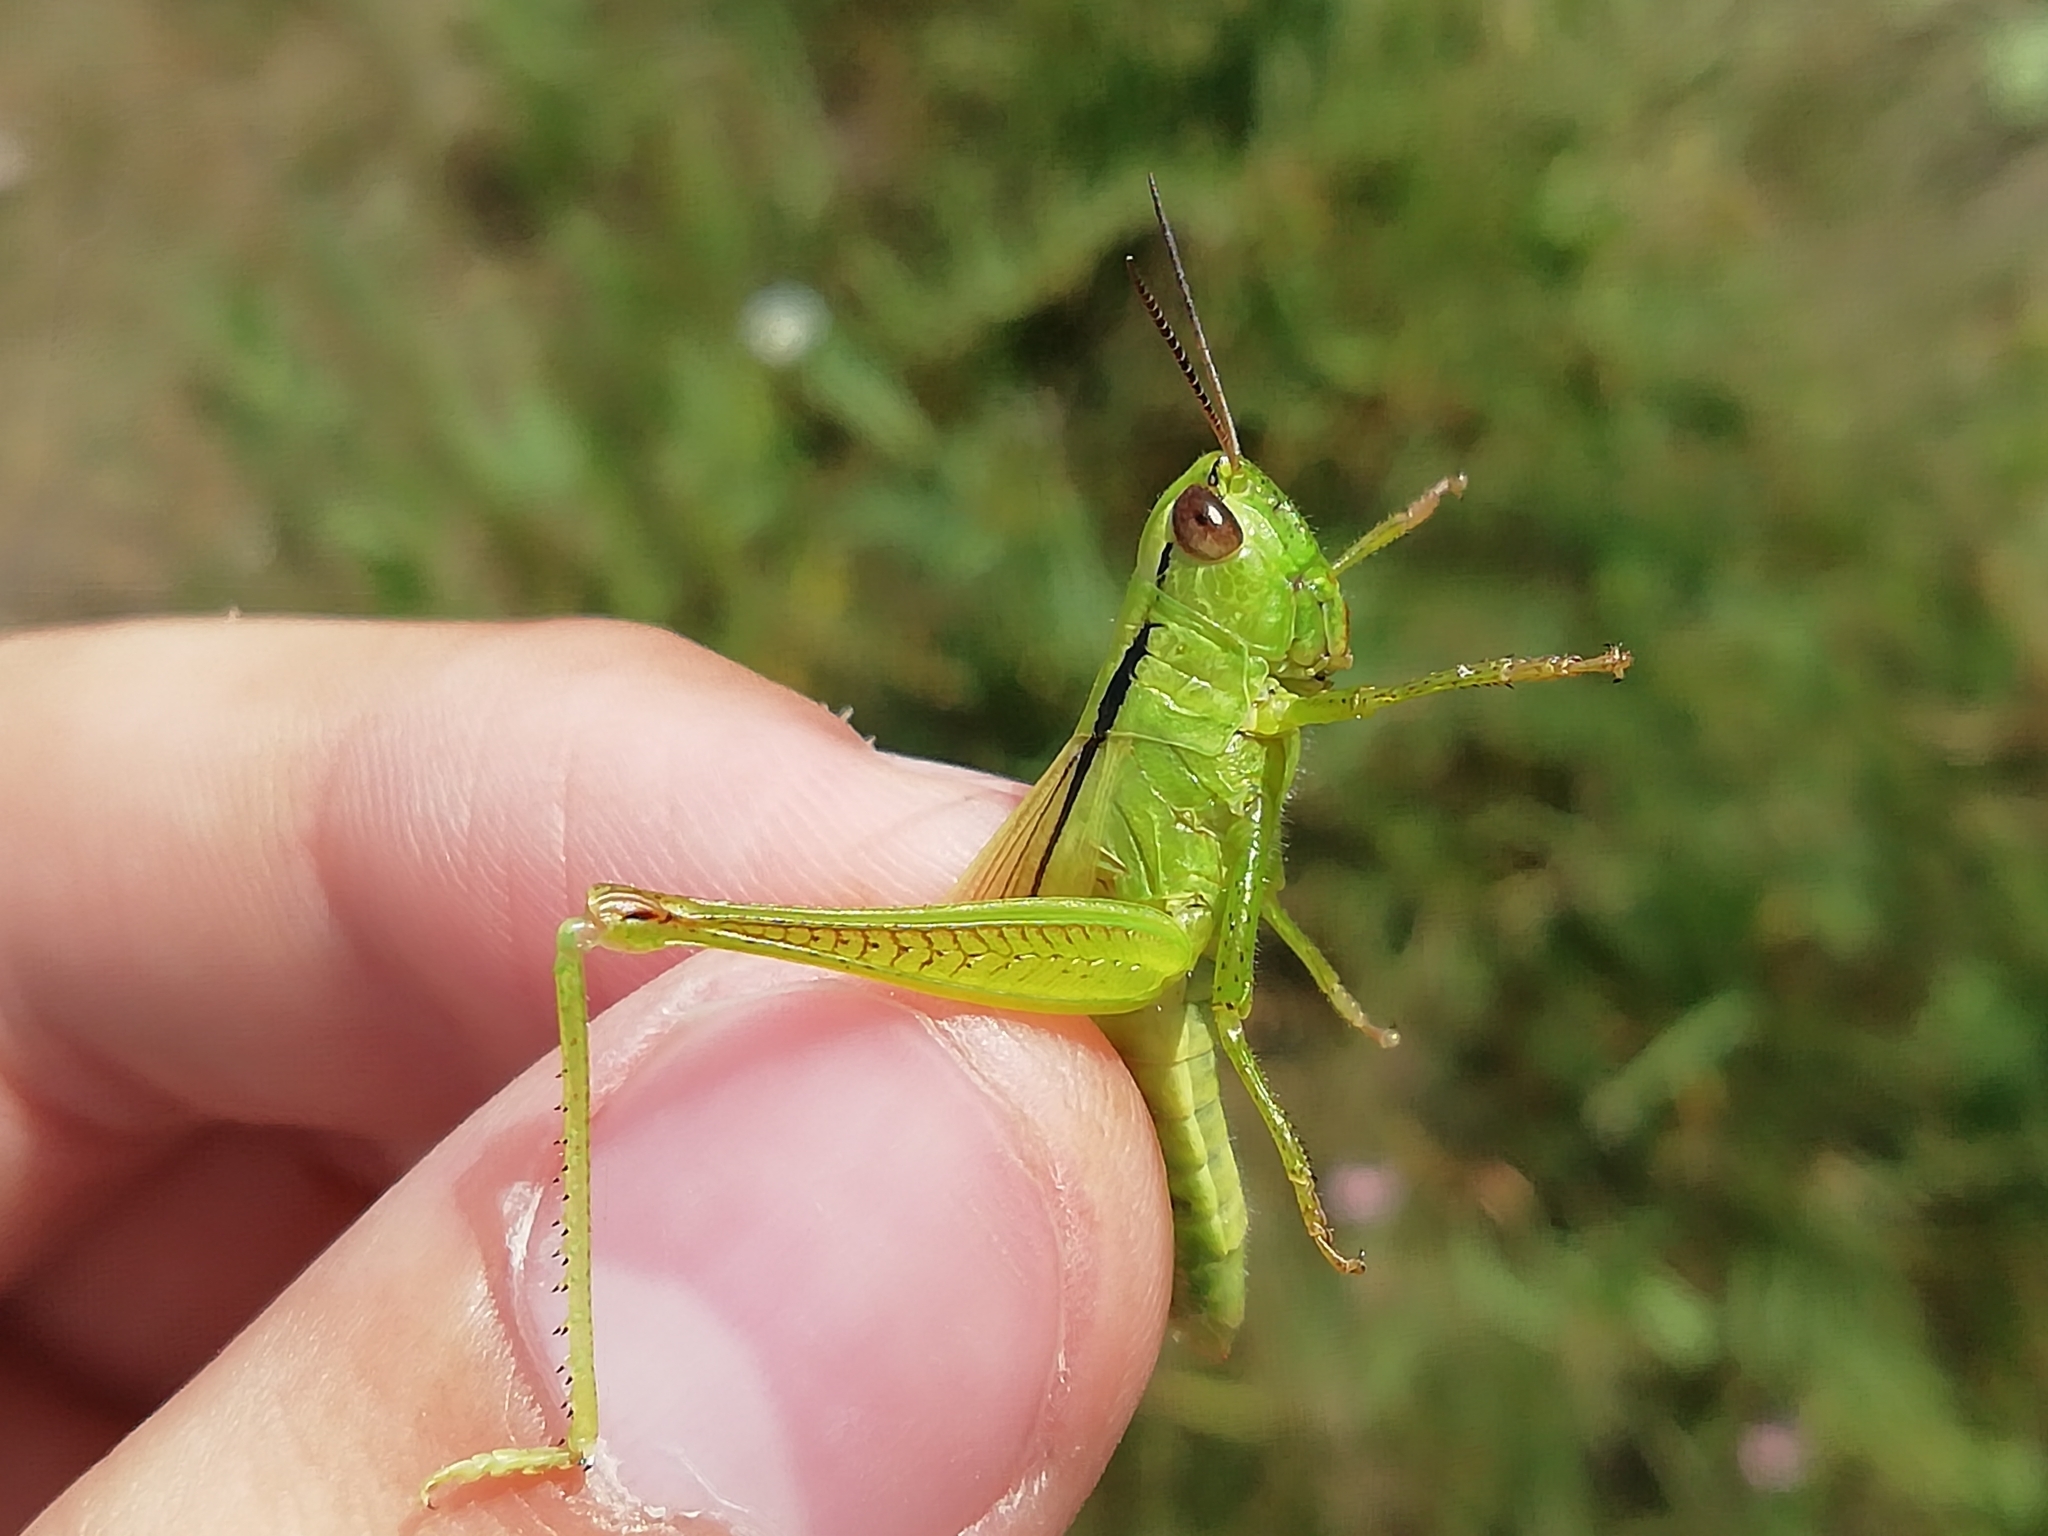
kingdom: Animalia
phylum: Arthropoda
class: Insecta
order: Orthoptera
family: Acrididae
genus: Mecostethus
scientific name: Mecostethus parapleurus
